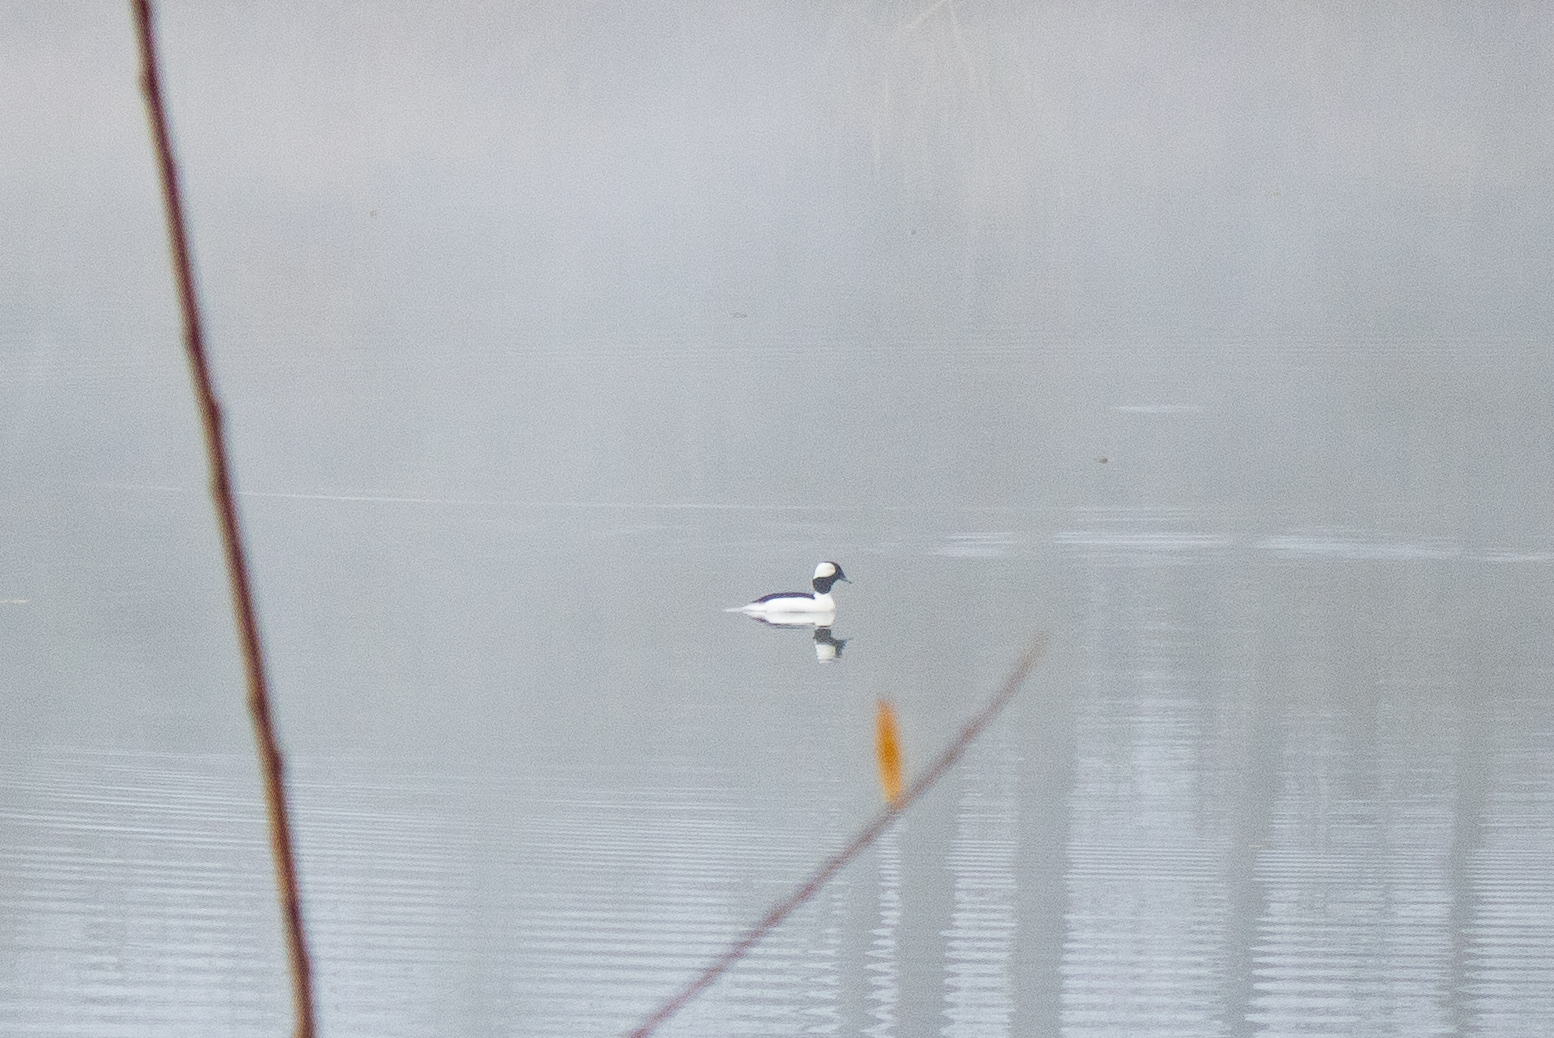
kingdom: Animalia
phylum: Chordata
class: Aves
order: Anseriformes
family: Anatidae
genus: Bucephala
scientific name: Bucephala albeola
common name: Bufflehead
